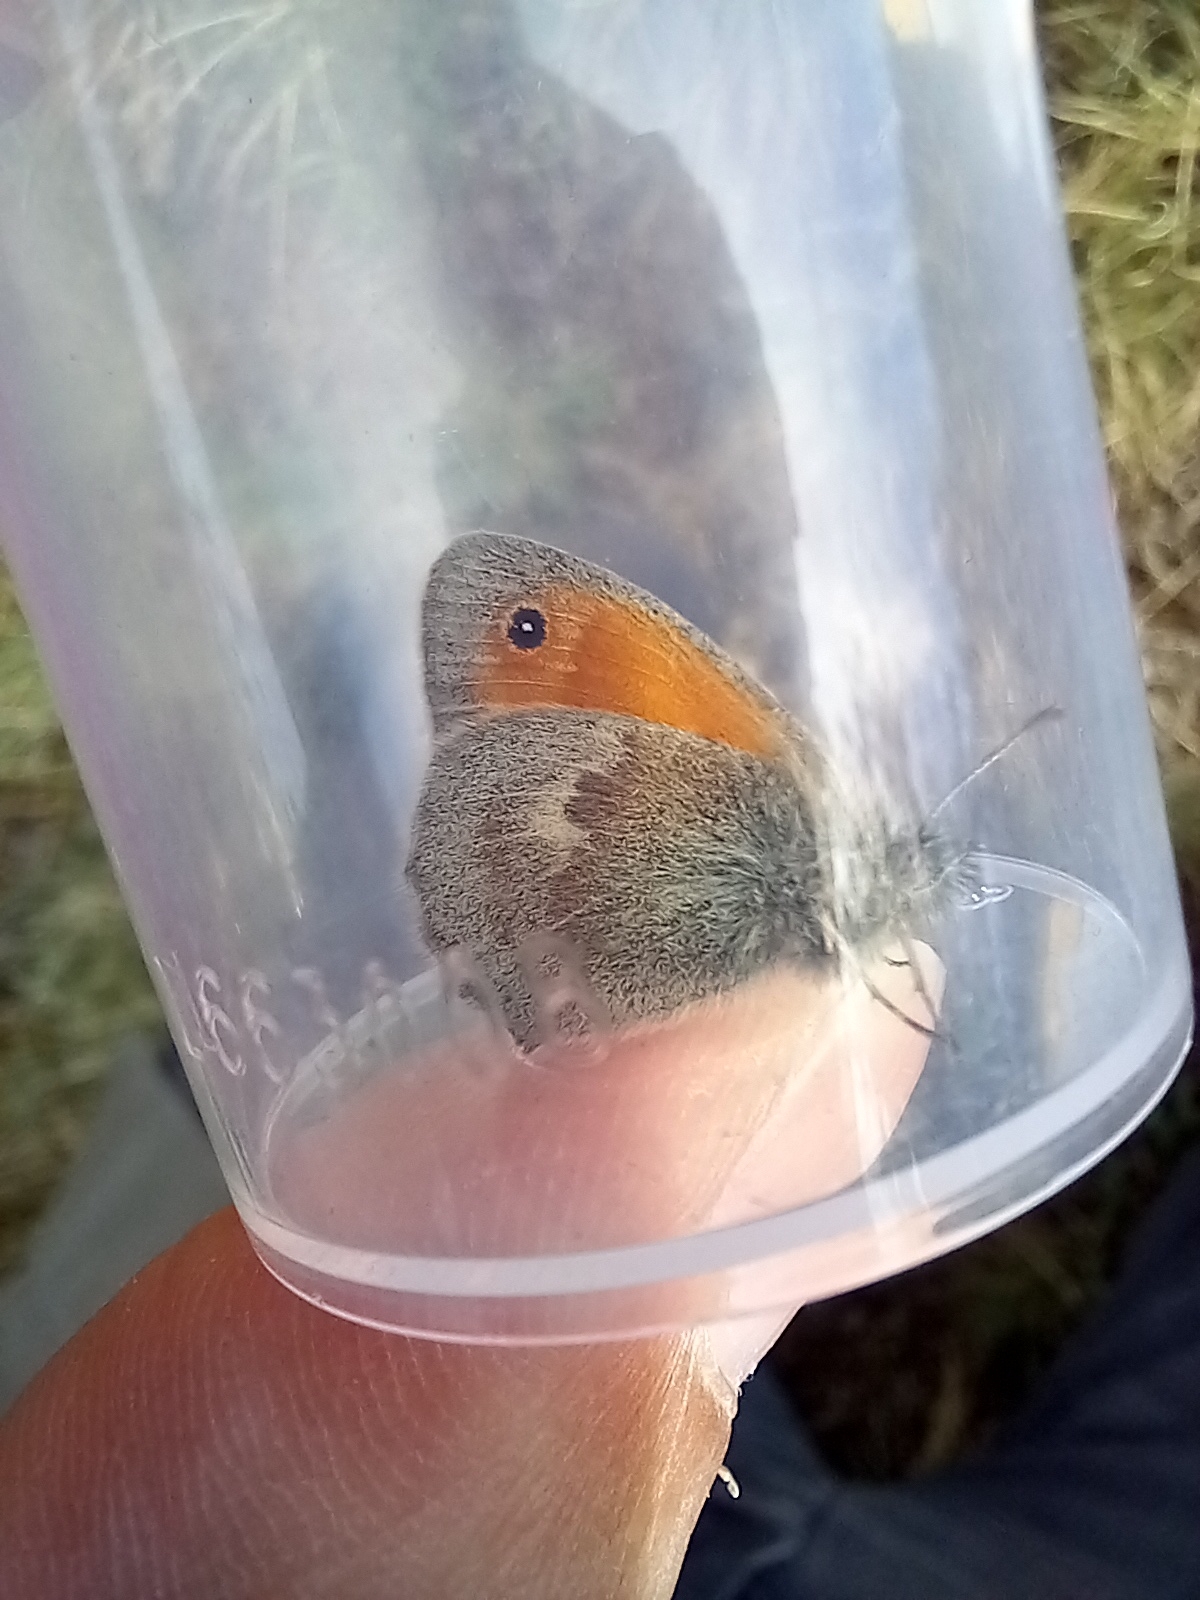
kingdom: Animalia
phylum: Arthropoda
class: Insecta
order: Lepidoptera
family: Nymphalidae
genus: Coenonympha
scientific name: Coenonympha pamphilus
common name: Small heath
